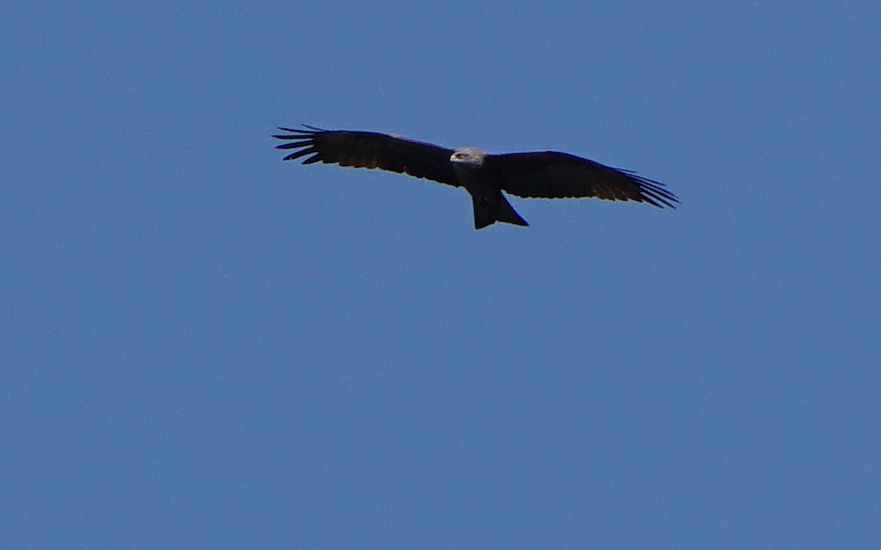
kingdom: Animalia
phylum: Chordata
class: Aves
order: Accipitriformes
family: Accipitridae
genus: Milvus
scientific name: Milvus migrans
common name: Black kite
